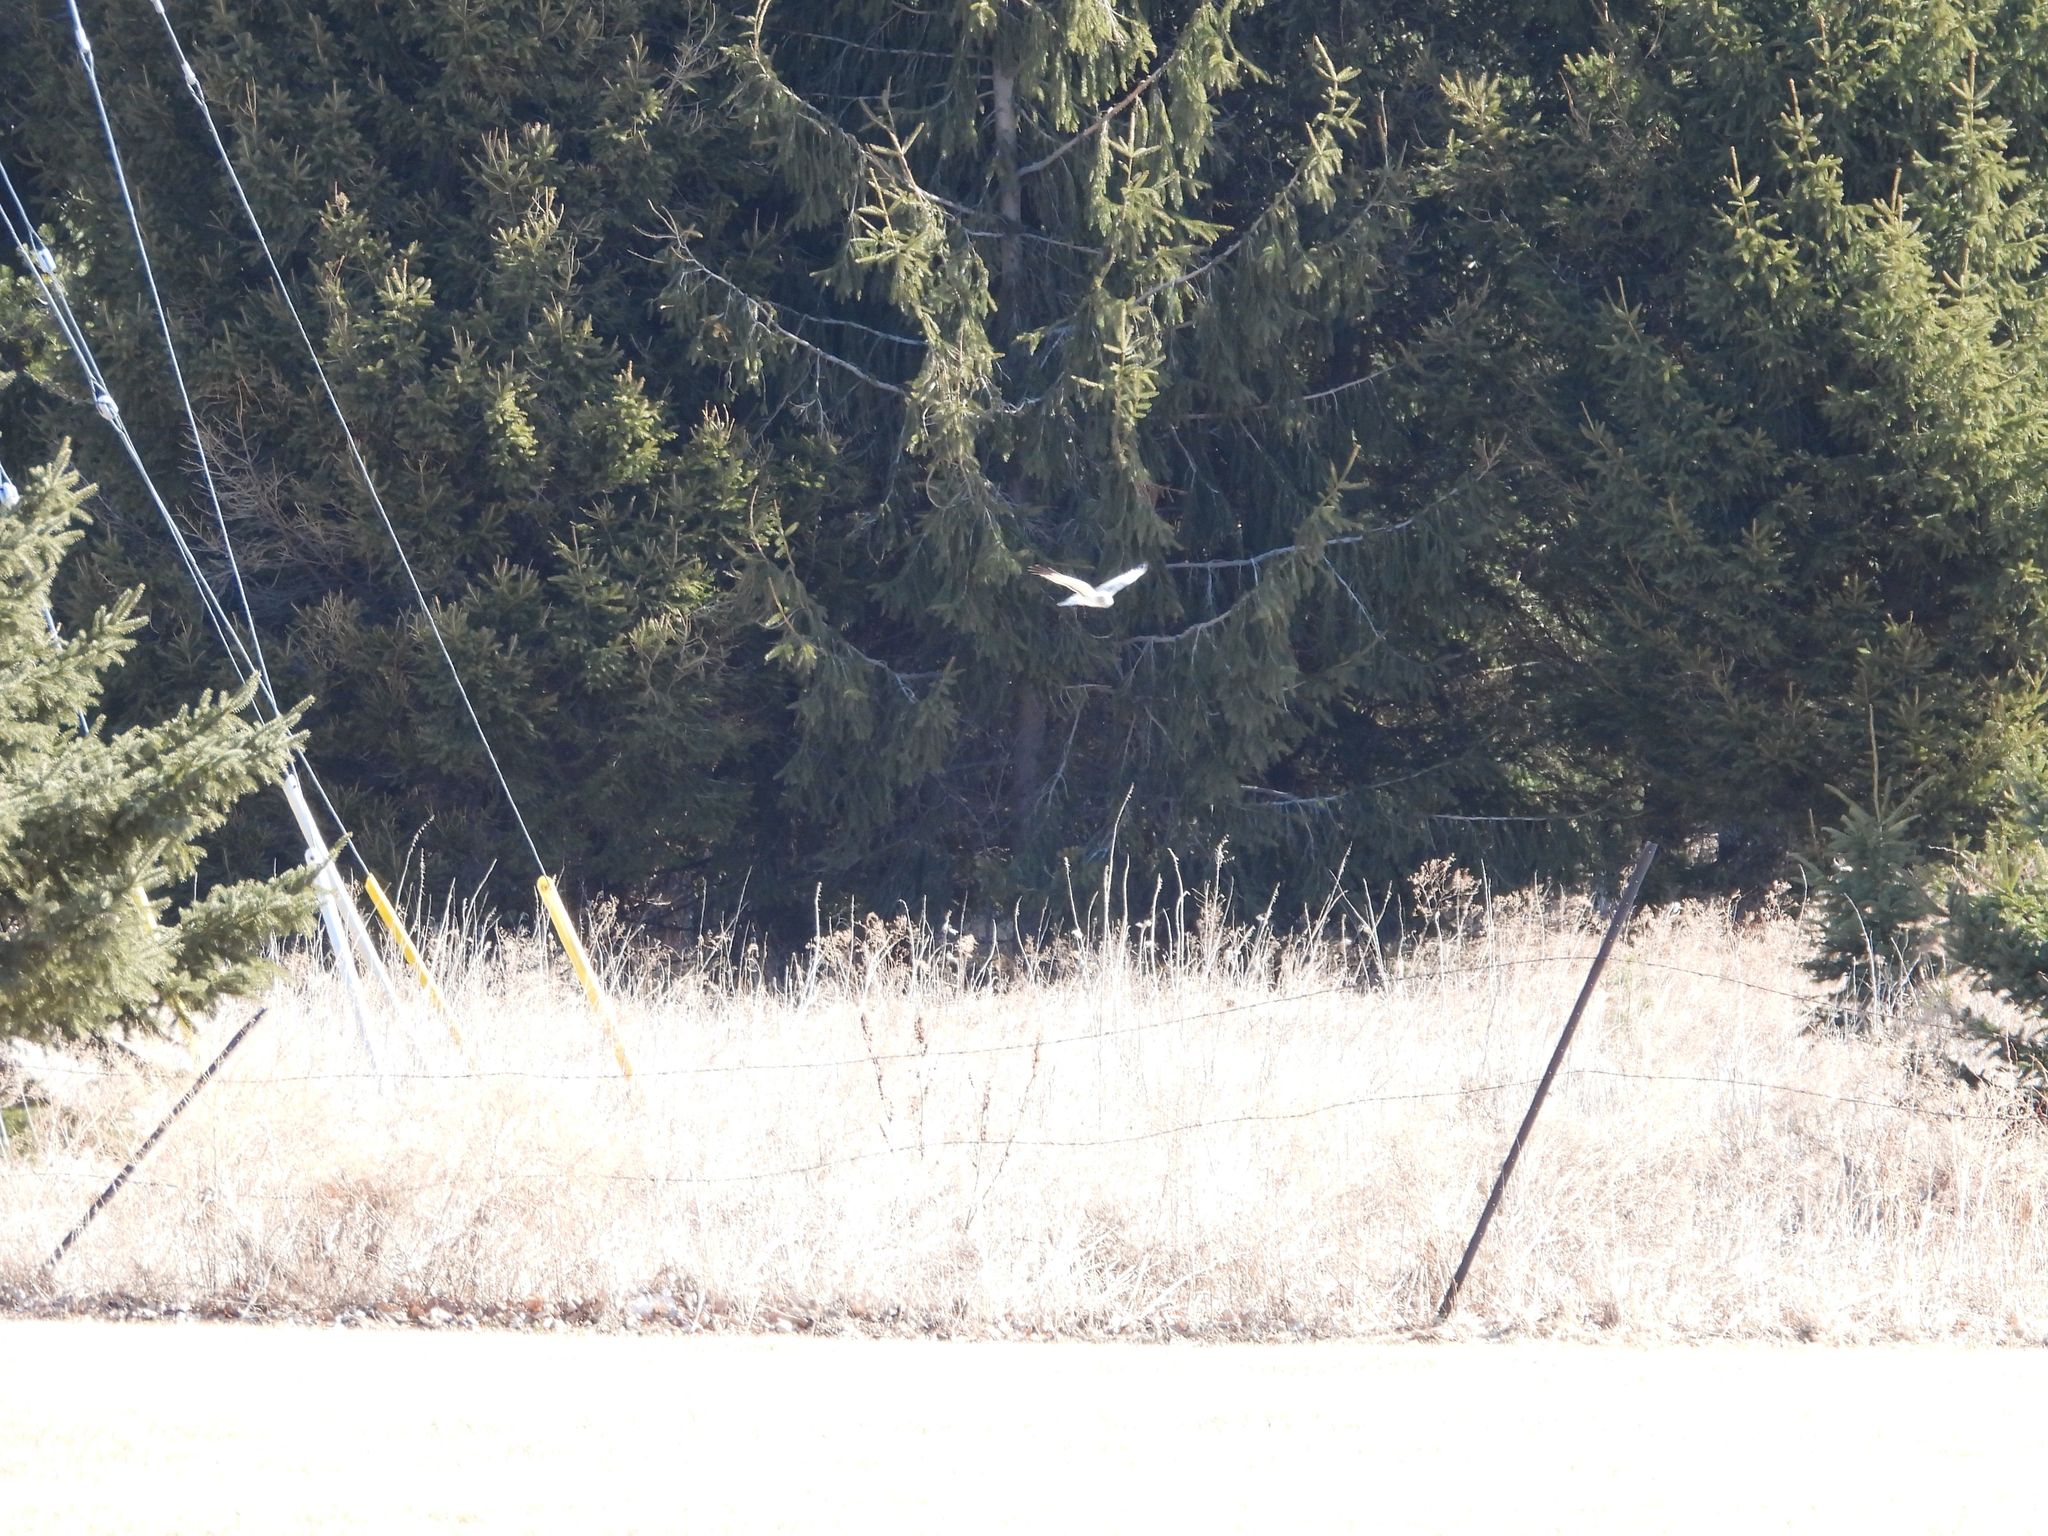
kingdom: Animalia
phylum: Chordata
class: Aves
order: Accipitriformes
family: Accipitridae
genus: Circus
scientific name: Circus cyaneus
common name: Hen harrier
